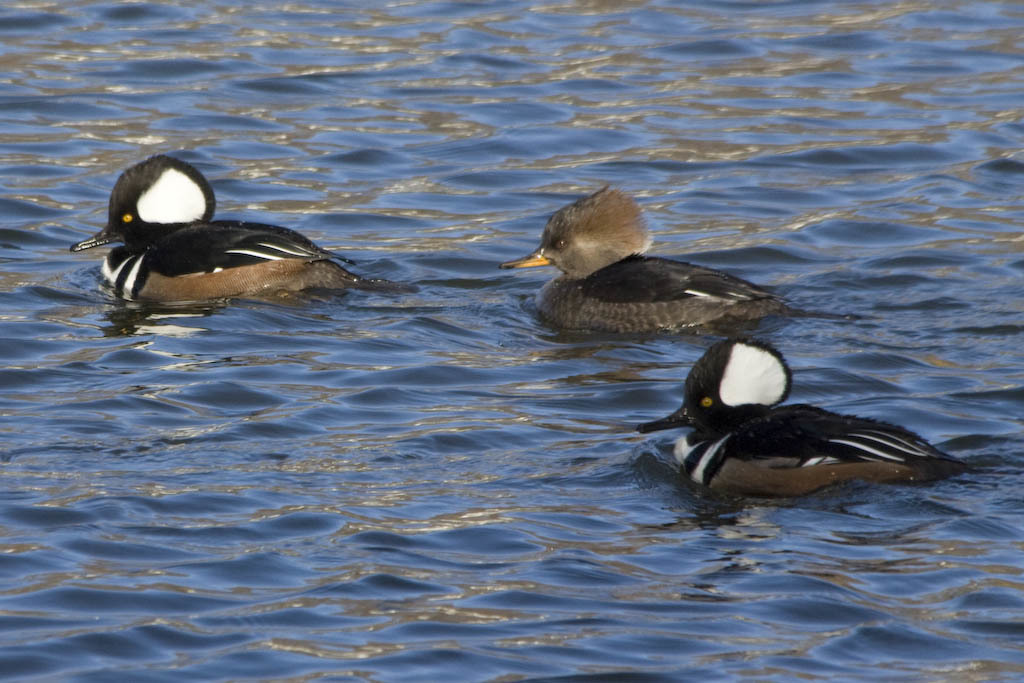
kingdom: Animalia
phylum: Chordata
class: Aves
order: Anseriformes
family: Anatidae
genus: Lophodytes
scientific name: Lophodytes cucullatus
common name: Hooded merganser
